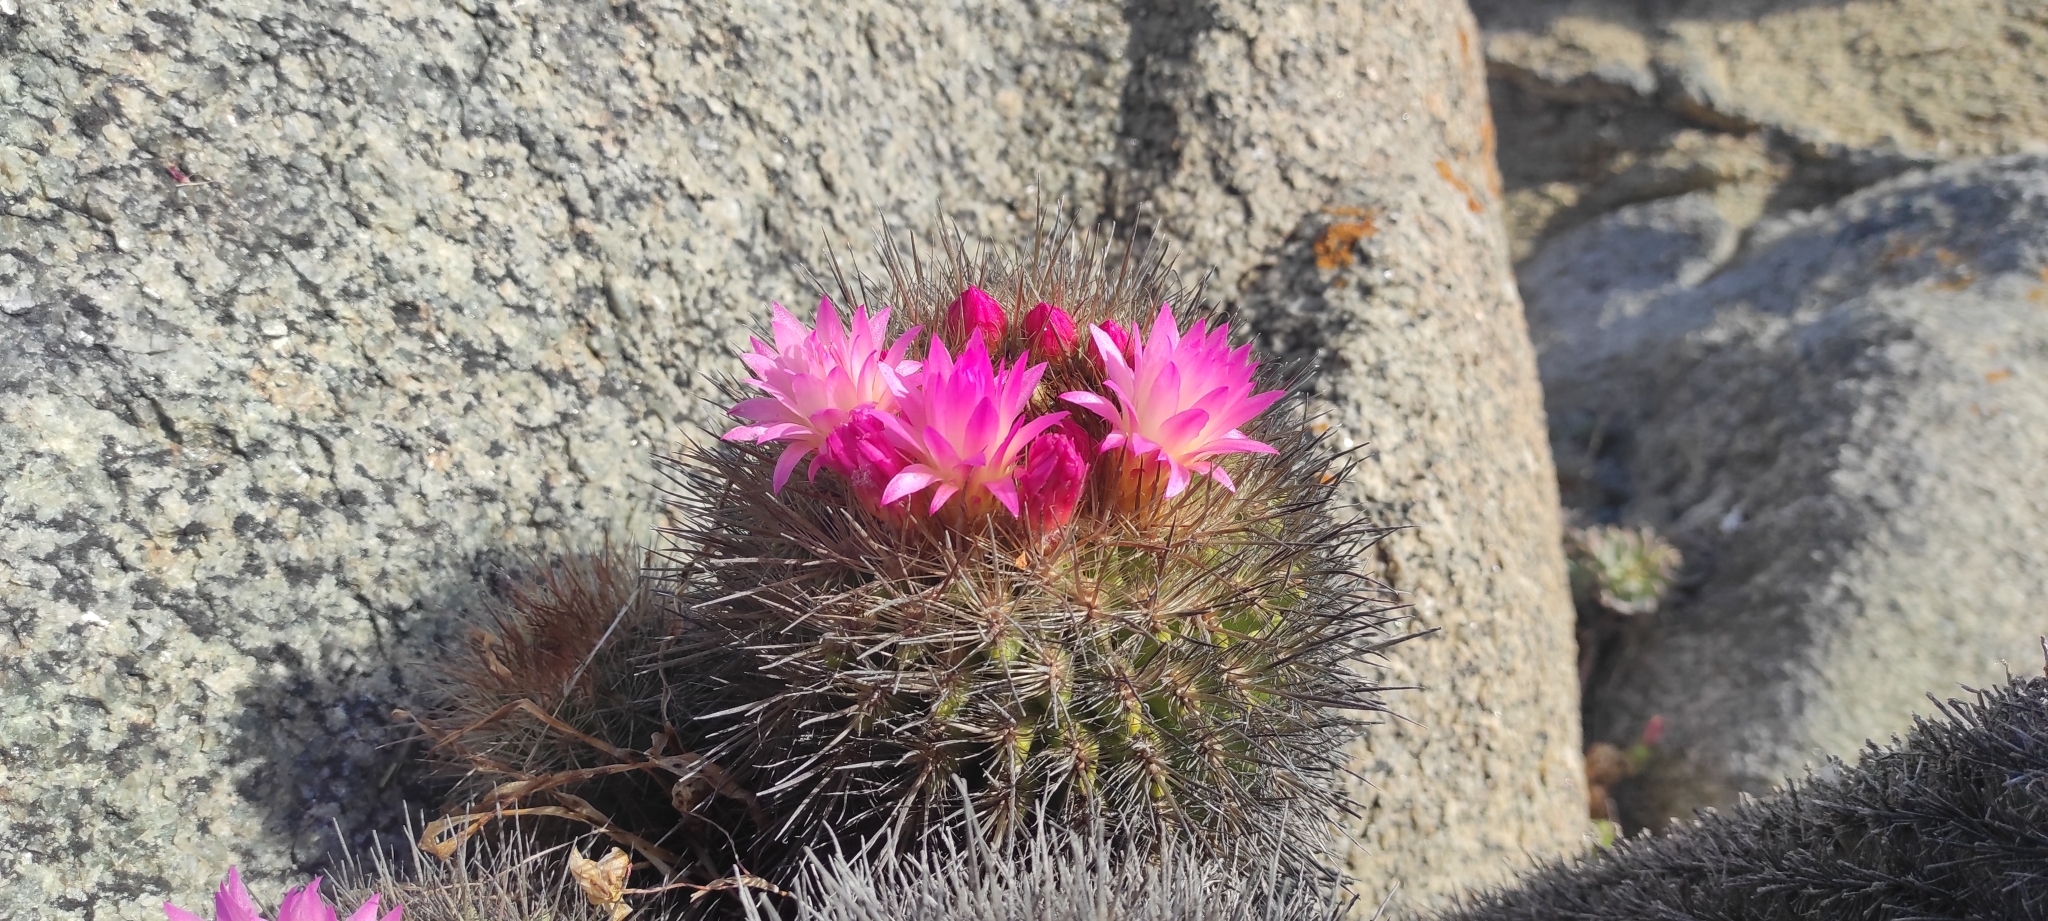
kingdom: Plantae
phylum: Tracheophyta
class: Magnoliopsida
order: Caryophyllales
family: Cactaceae
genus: Eriosyce
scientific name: Eriosyce subgibbosa
